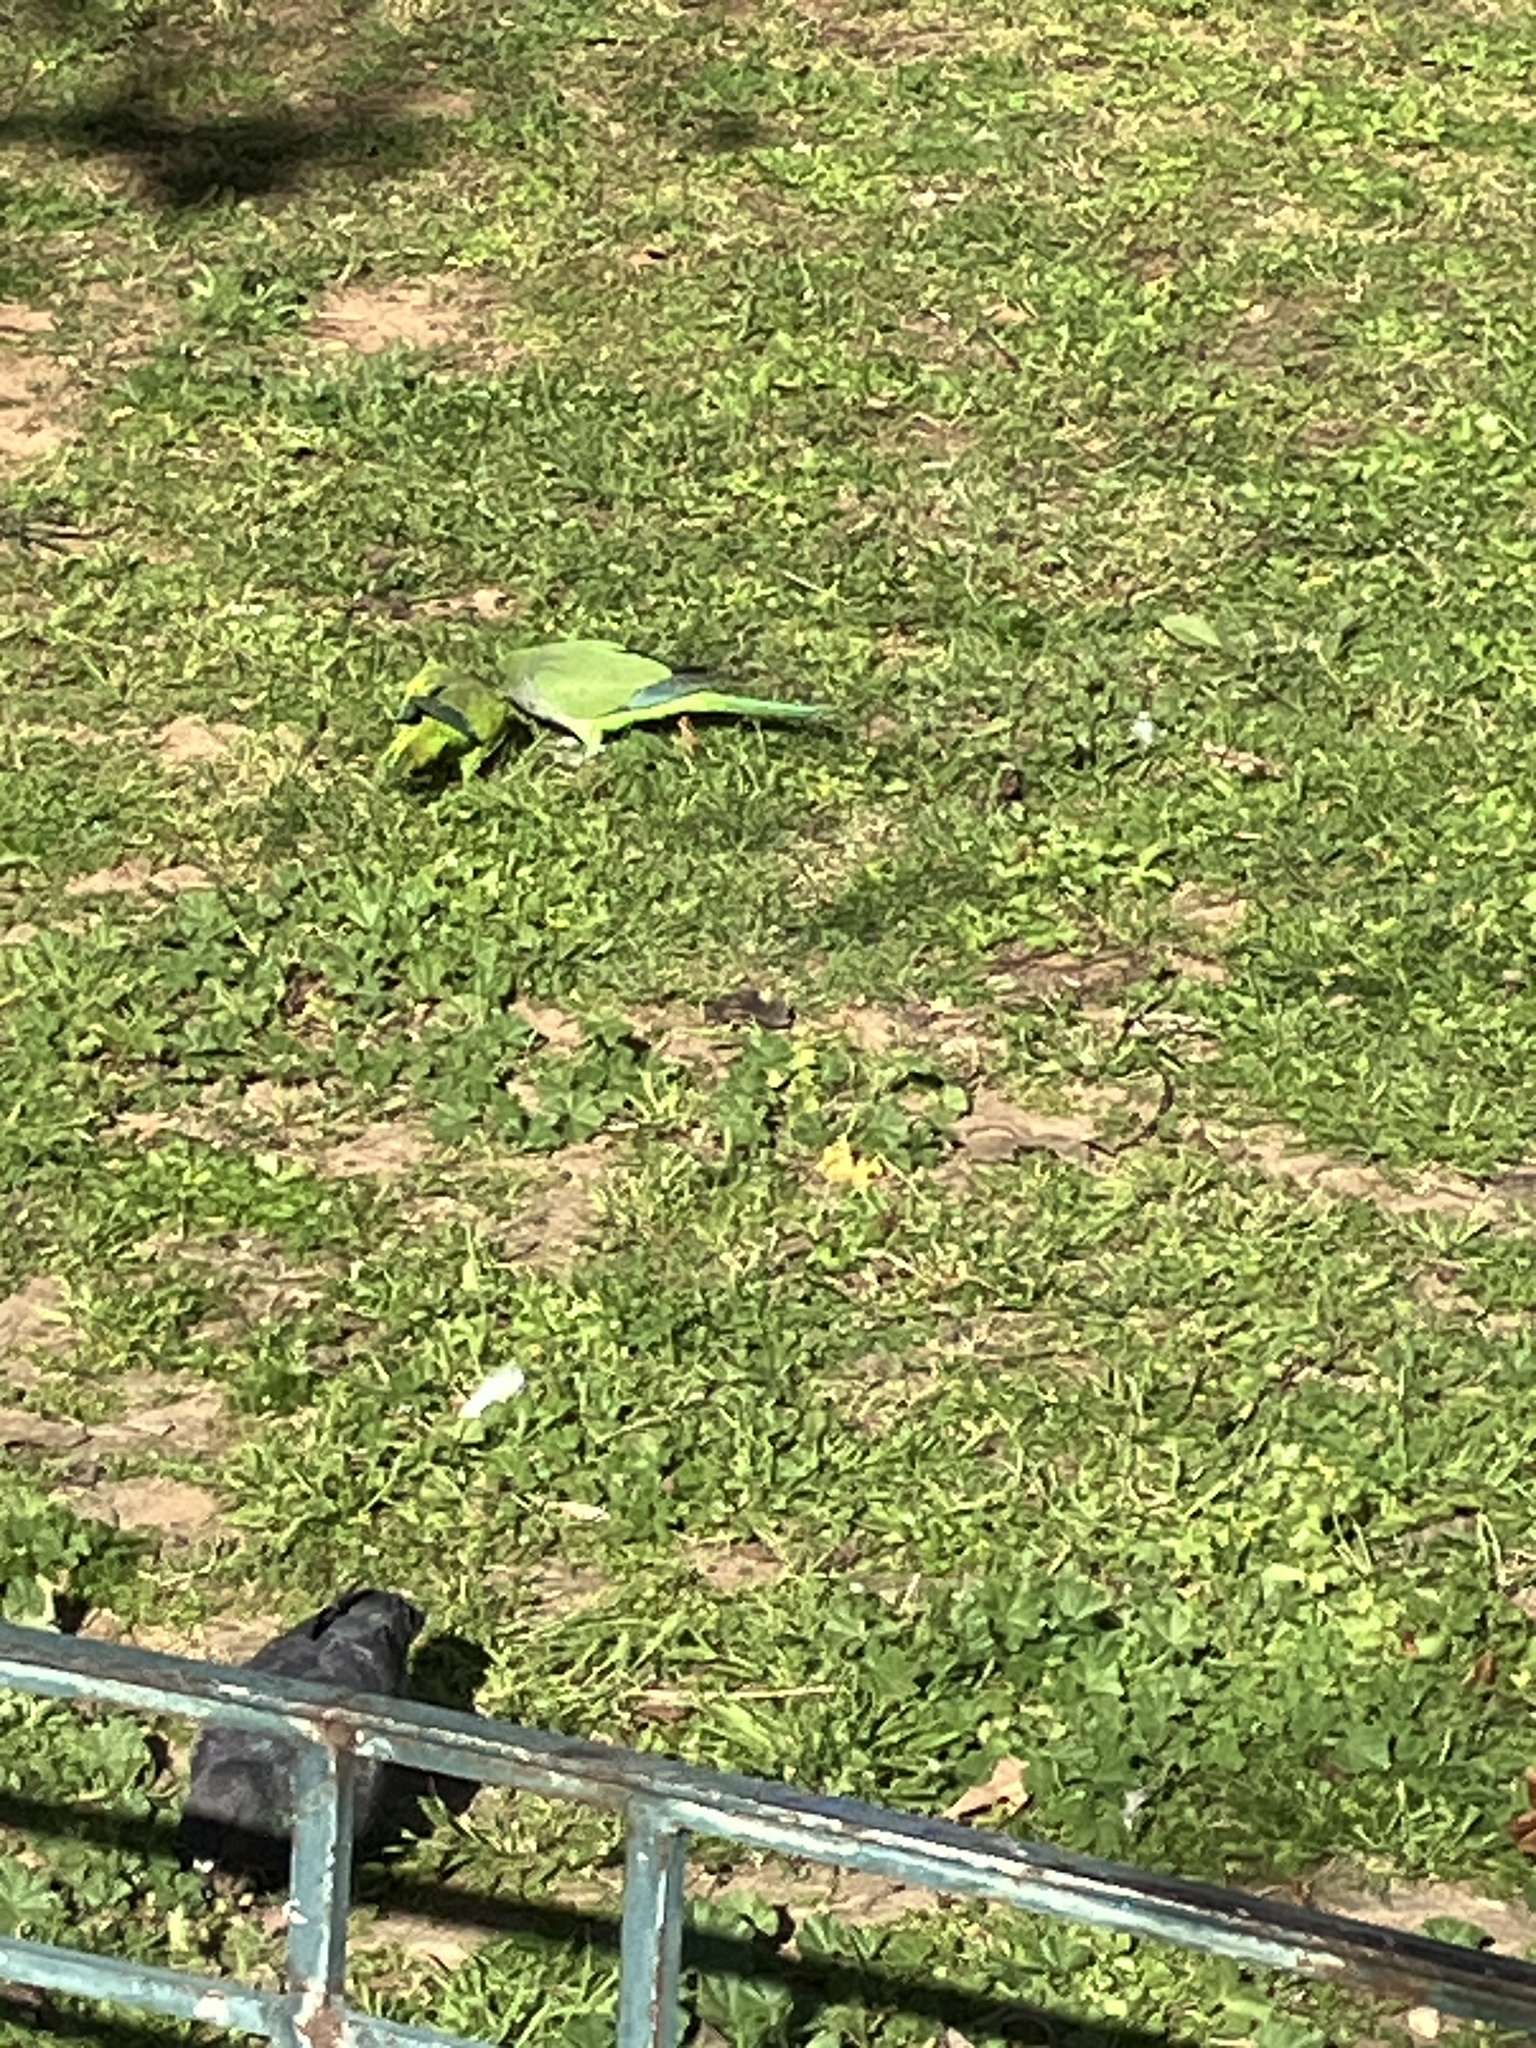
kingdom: Animalia
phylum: Chordata
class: Aves
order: Psittaciformes
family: Psittacidae
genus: Myiopsitta
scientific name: Myiopsitta monachus
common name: Monk parakeet
